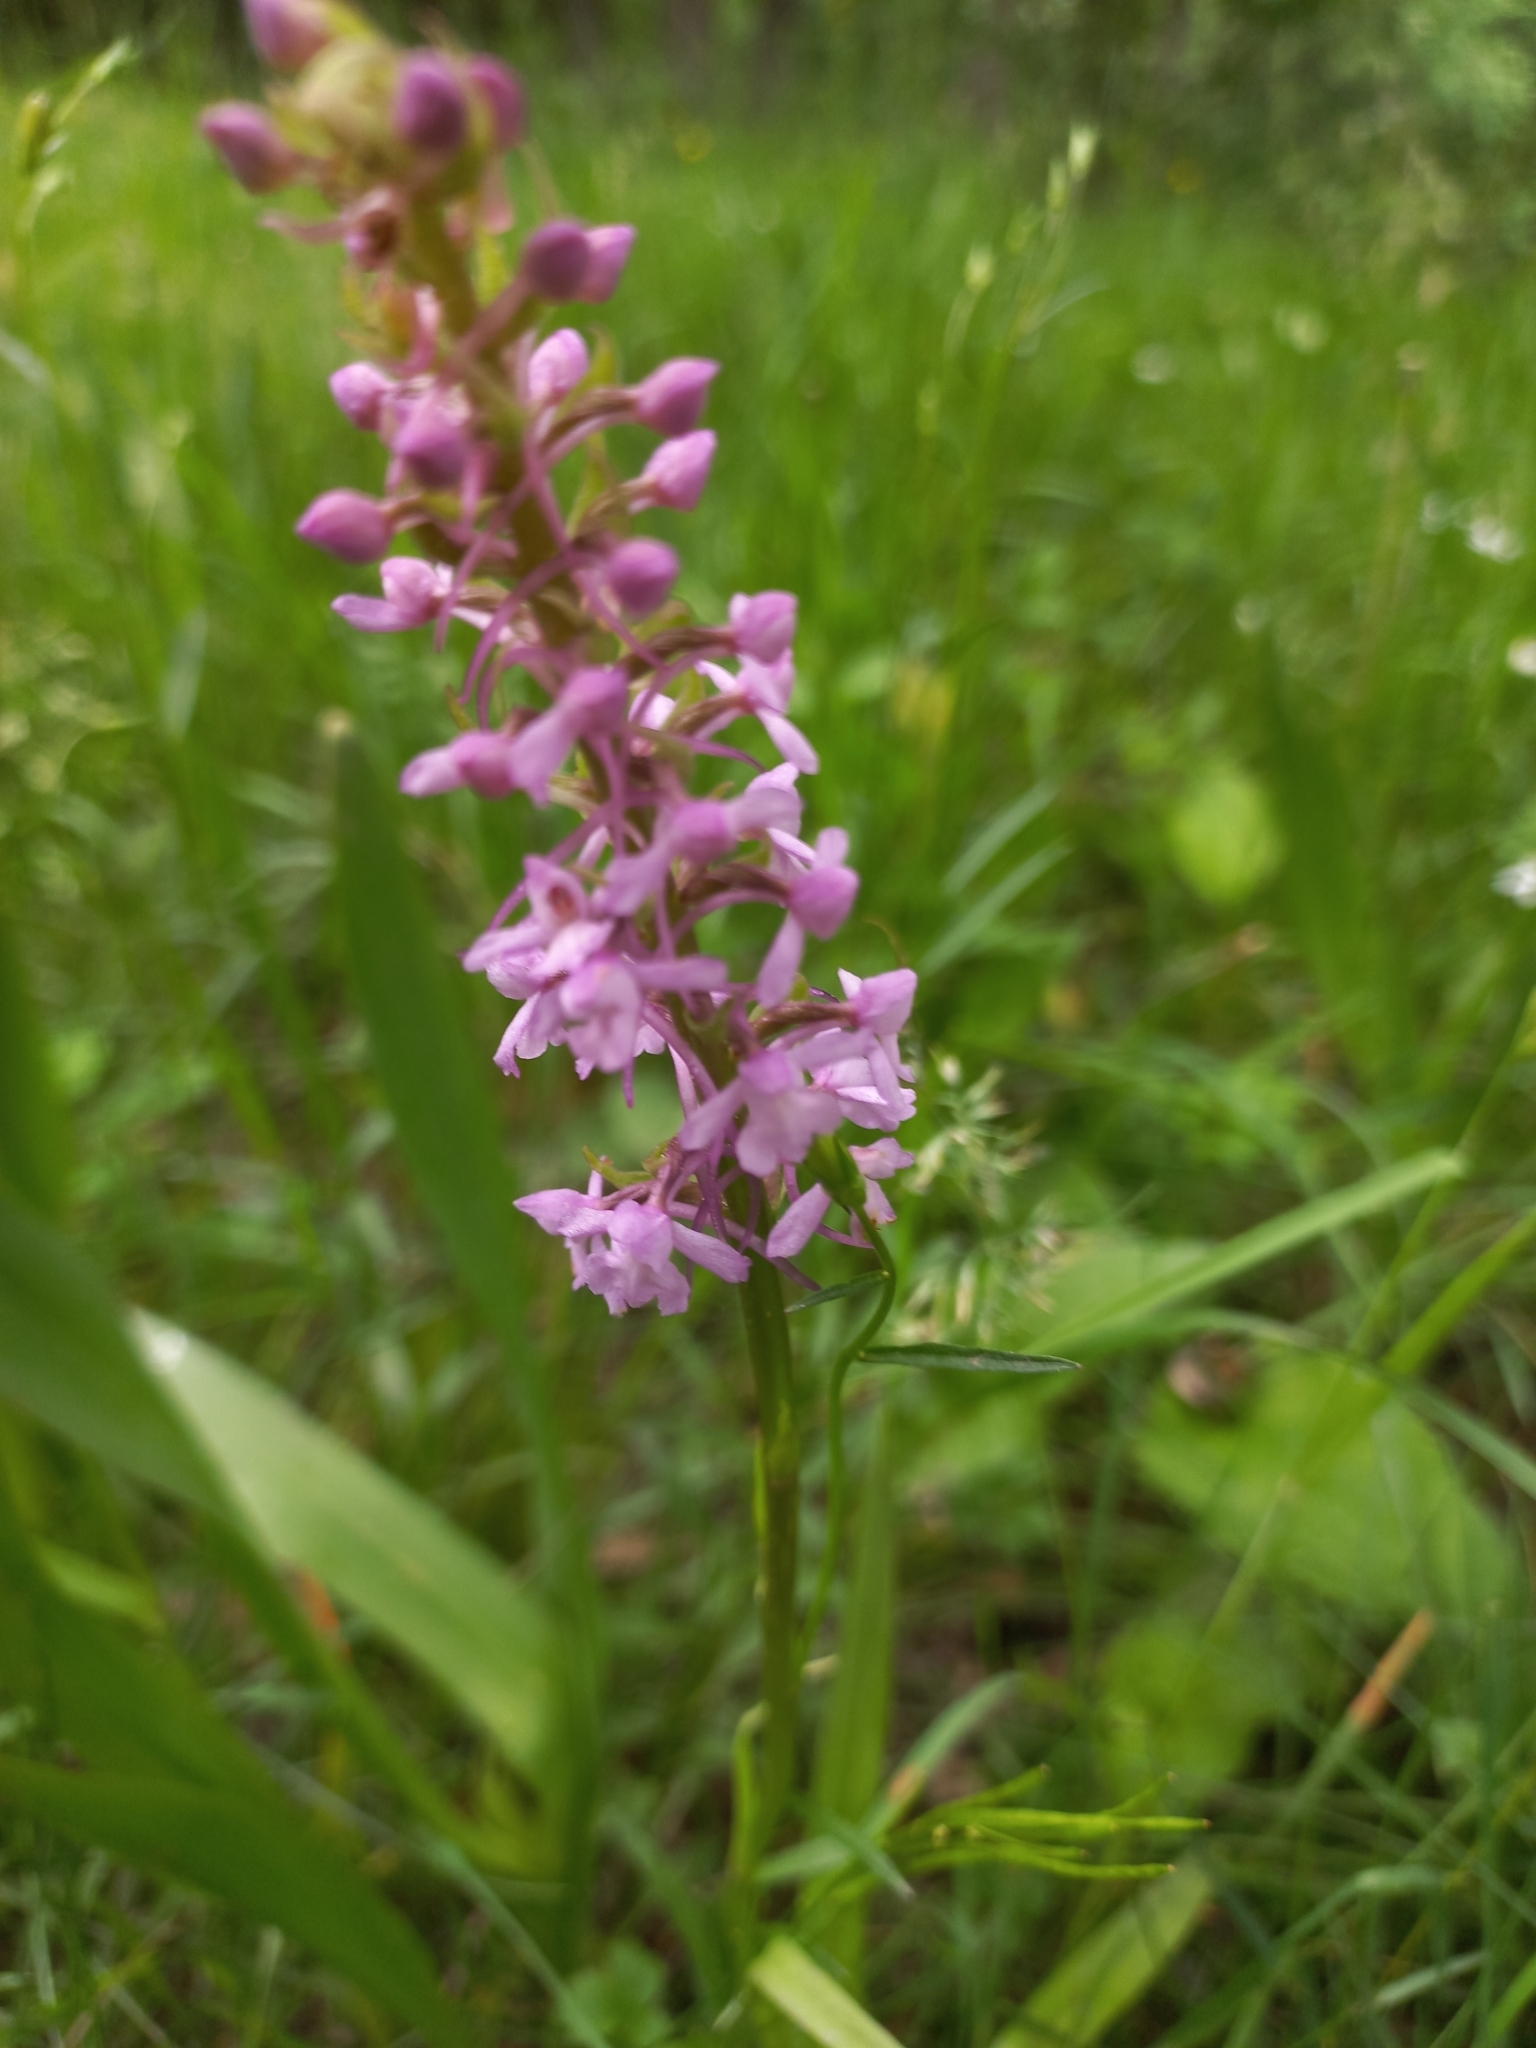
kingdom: Plantae
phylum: Tracheophyta
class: Liliopsida
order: Asparagales
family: Orchidaceae
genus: Gymnadenia
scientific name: Gymnadenia conopsea
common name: Fragrant orchid
